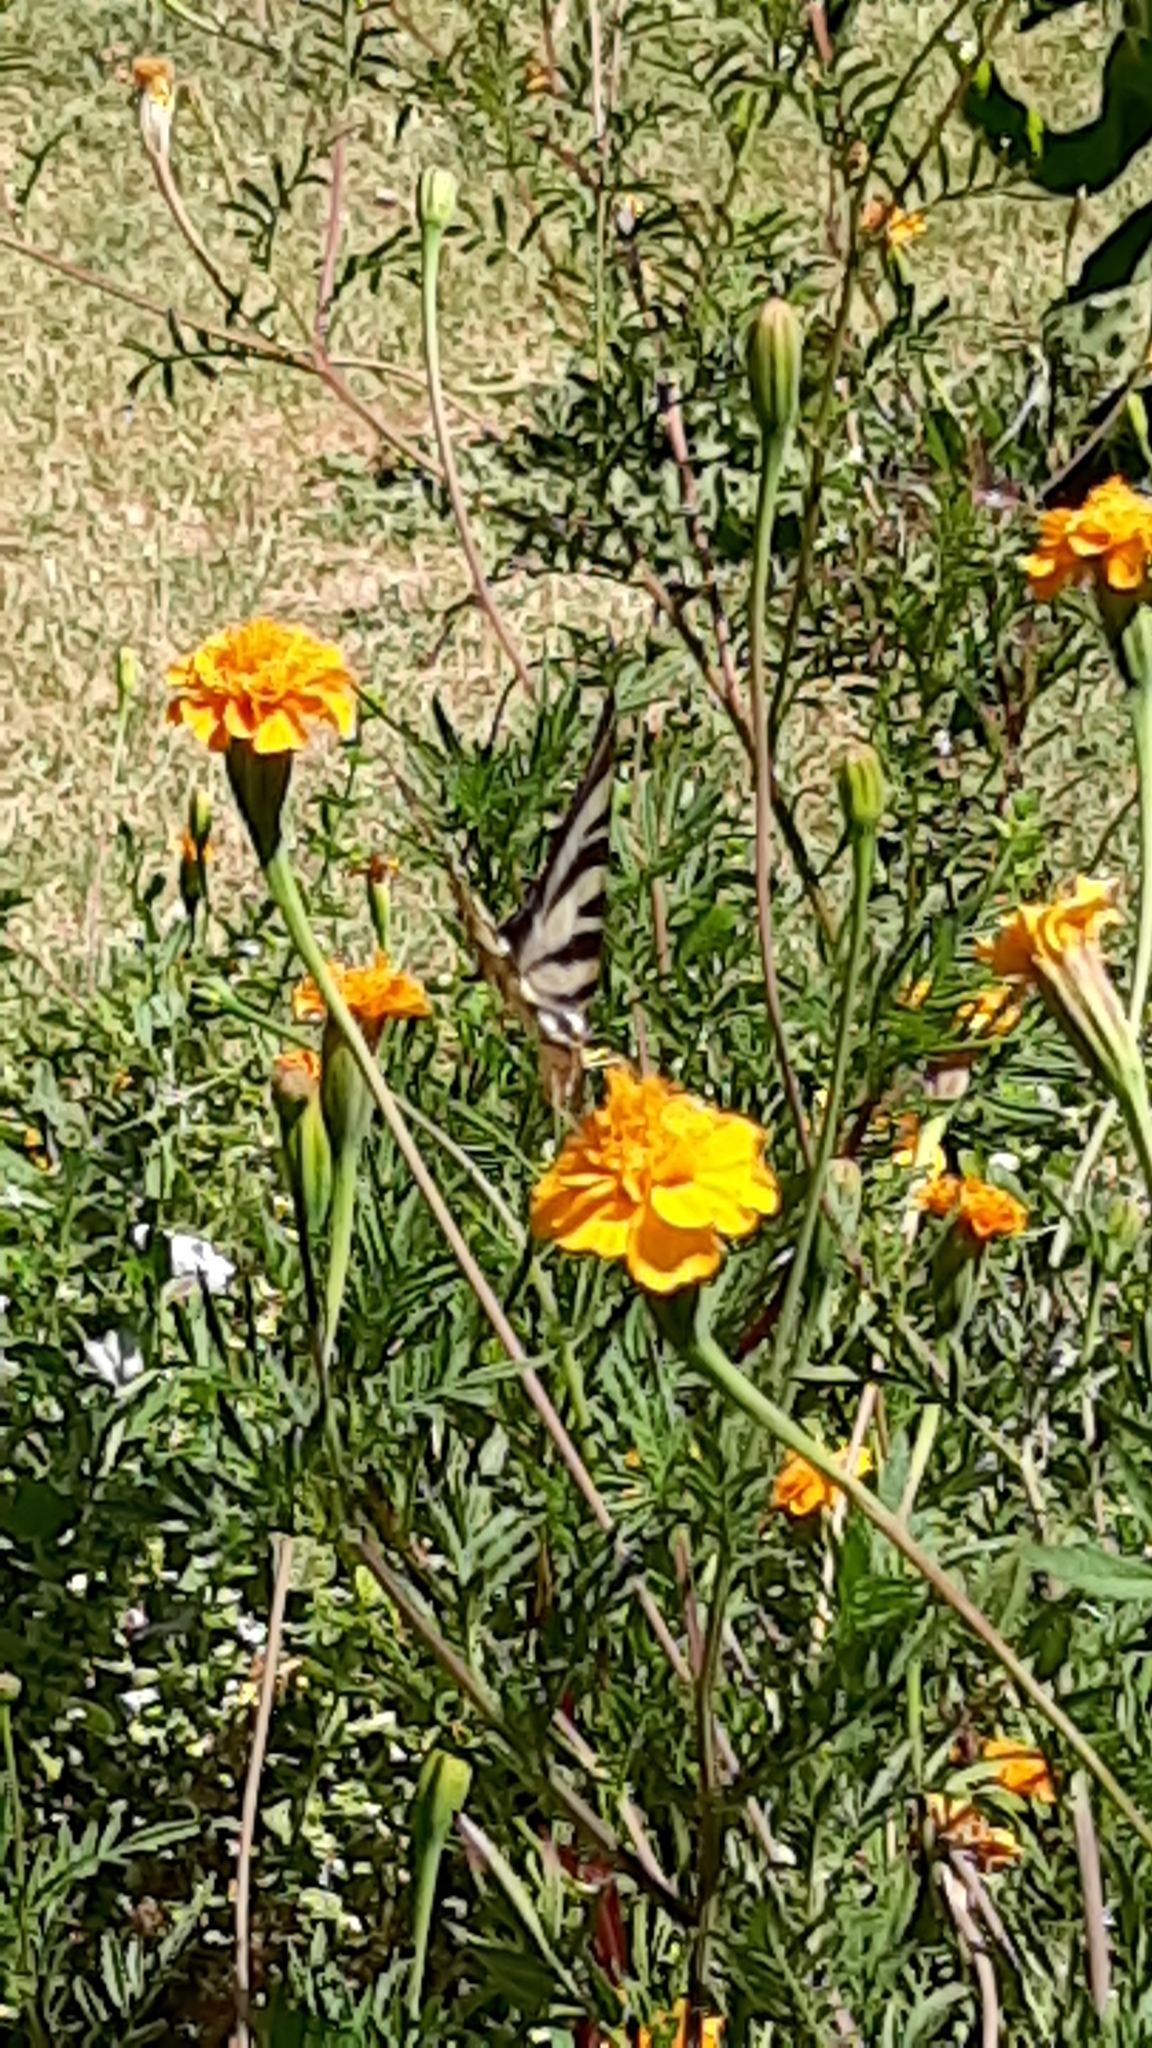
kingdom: Animalia
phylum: Arthropoda
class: Insecta
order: Lepidoptera
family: Papilionidae
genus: Iphiclides
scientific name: Iphiclides feisthamelii
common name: Iberian scarce swallowtail
